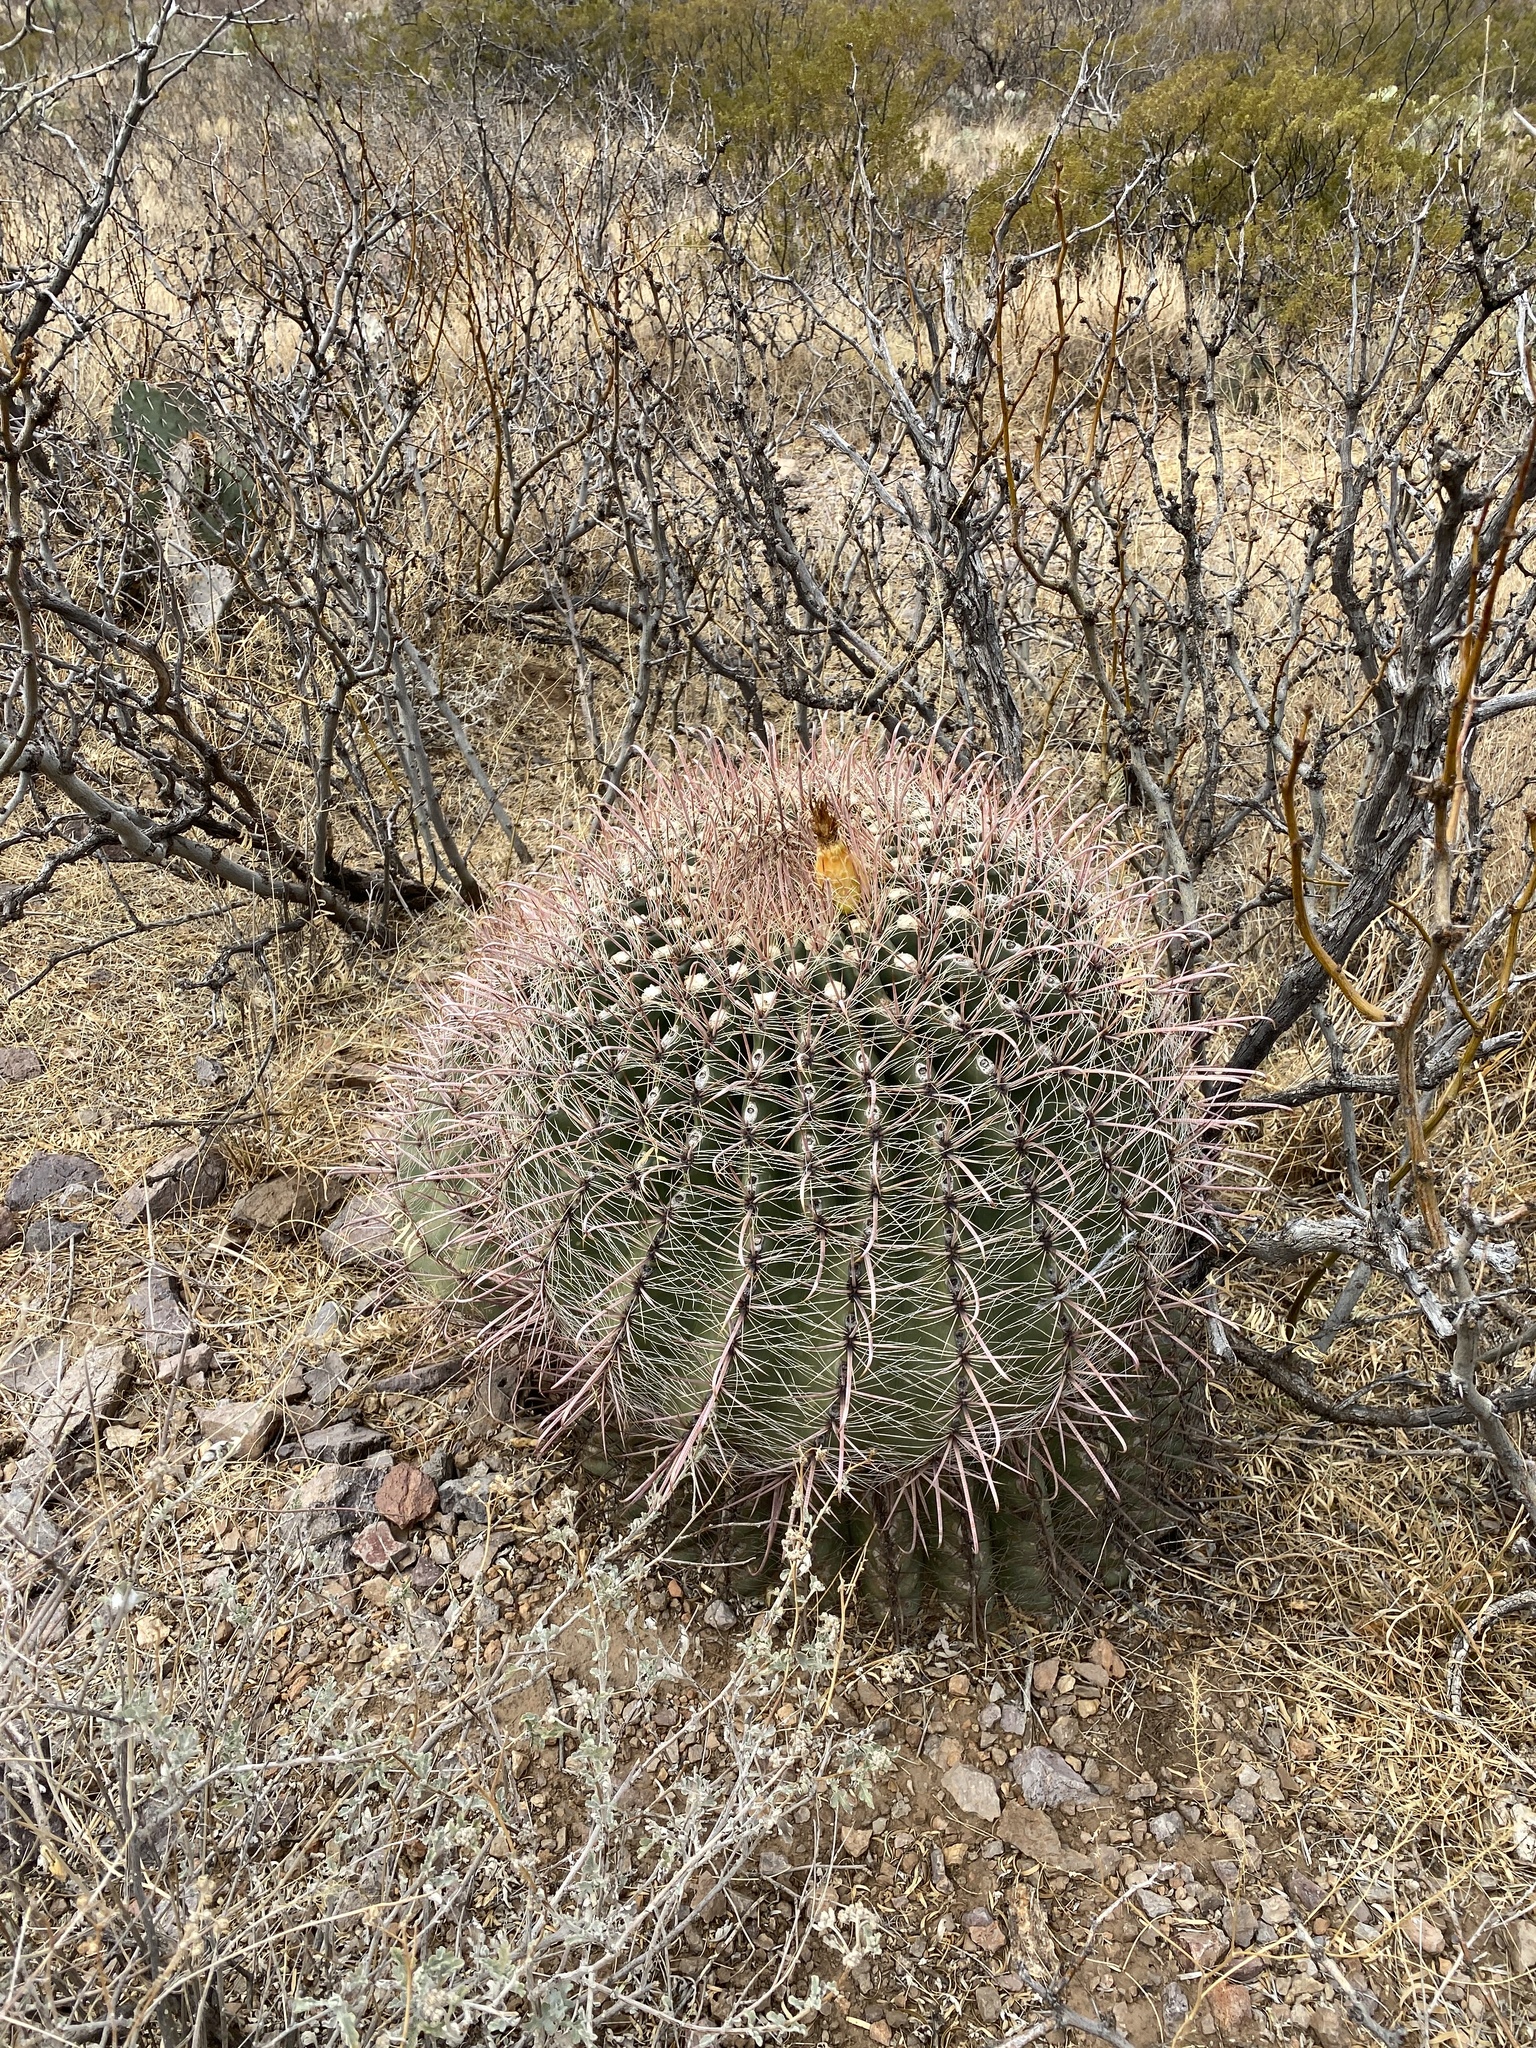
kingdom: Plantae
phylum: Tracheophyta
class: Magnoliopsida
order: Caryophyllales
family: Cactaceae
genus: Ferocactus
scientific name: Ferocactus wislizeni
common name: Candy barrel cactus
